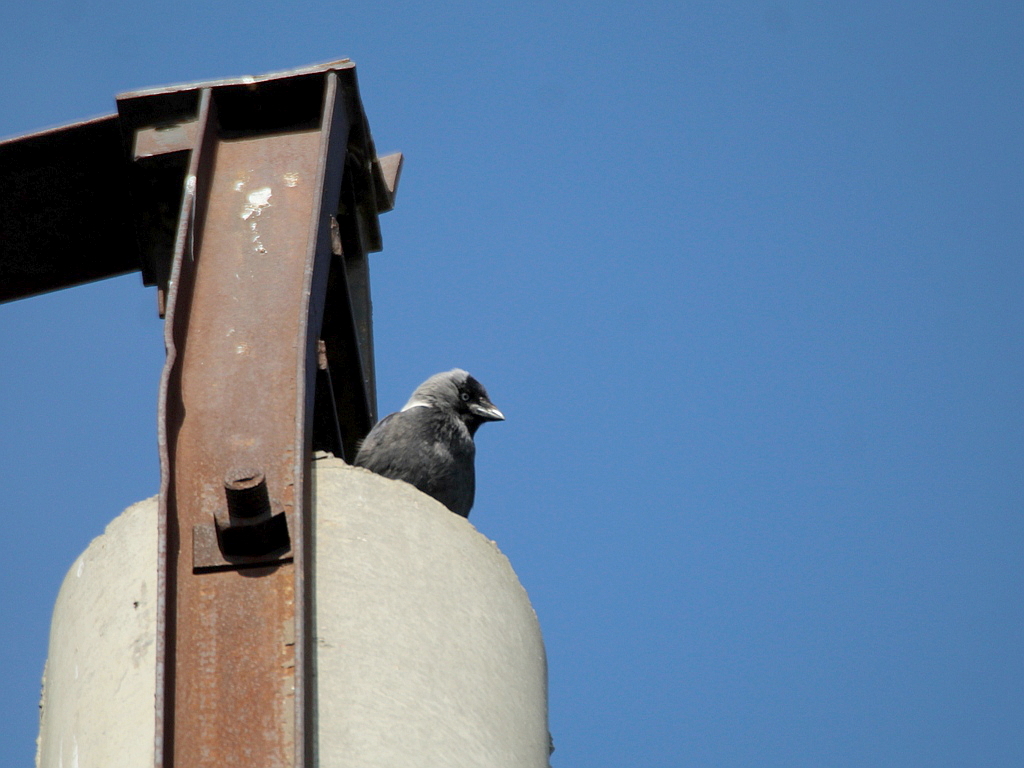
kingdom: Animalia
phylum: Chordata
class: Aves
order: Passeriformes
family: Corvidae
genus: Coloeus
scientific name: Coloeus monedula
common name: Western jackdaw
